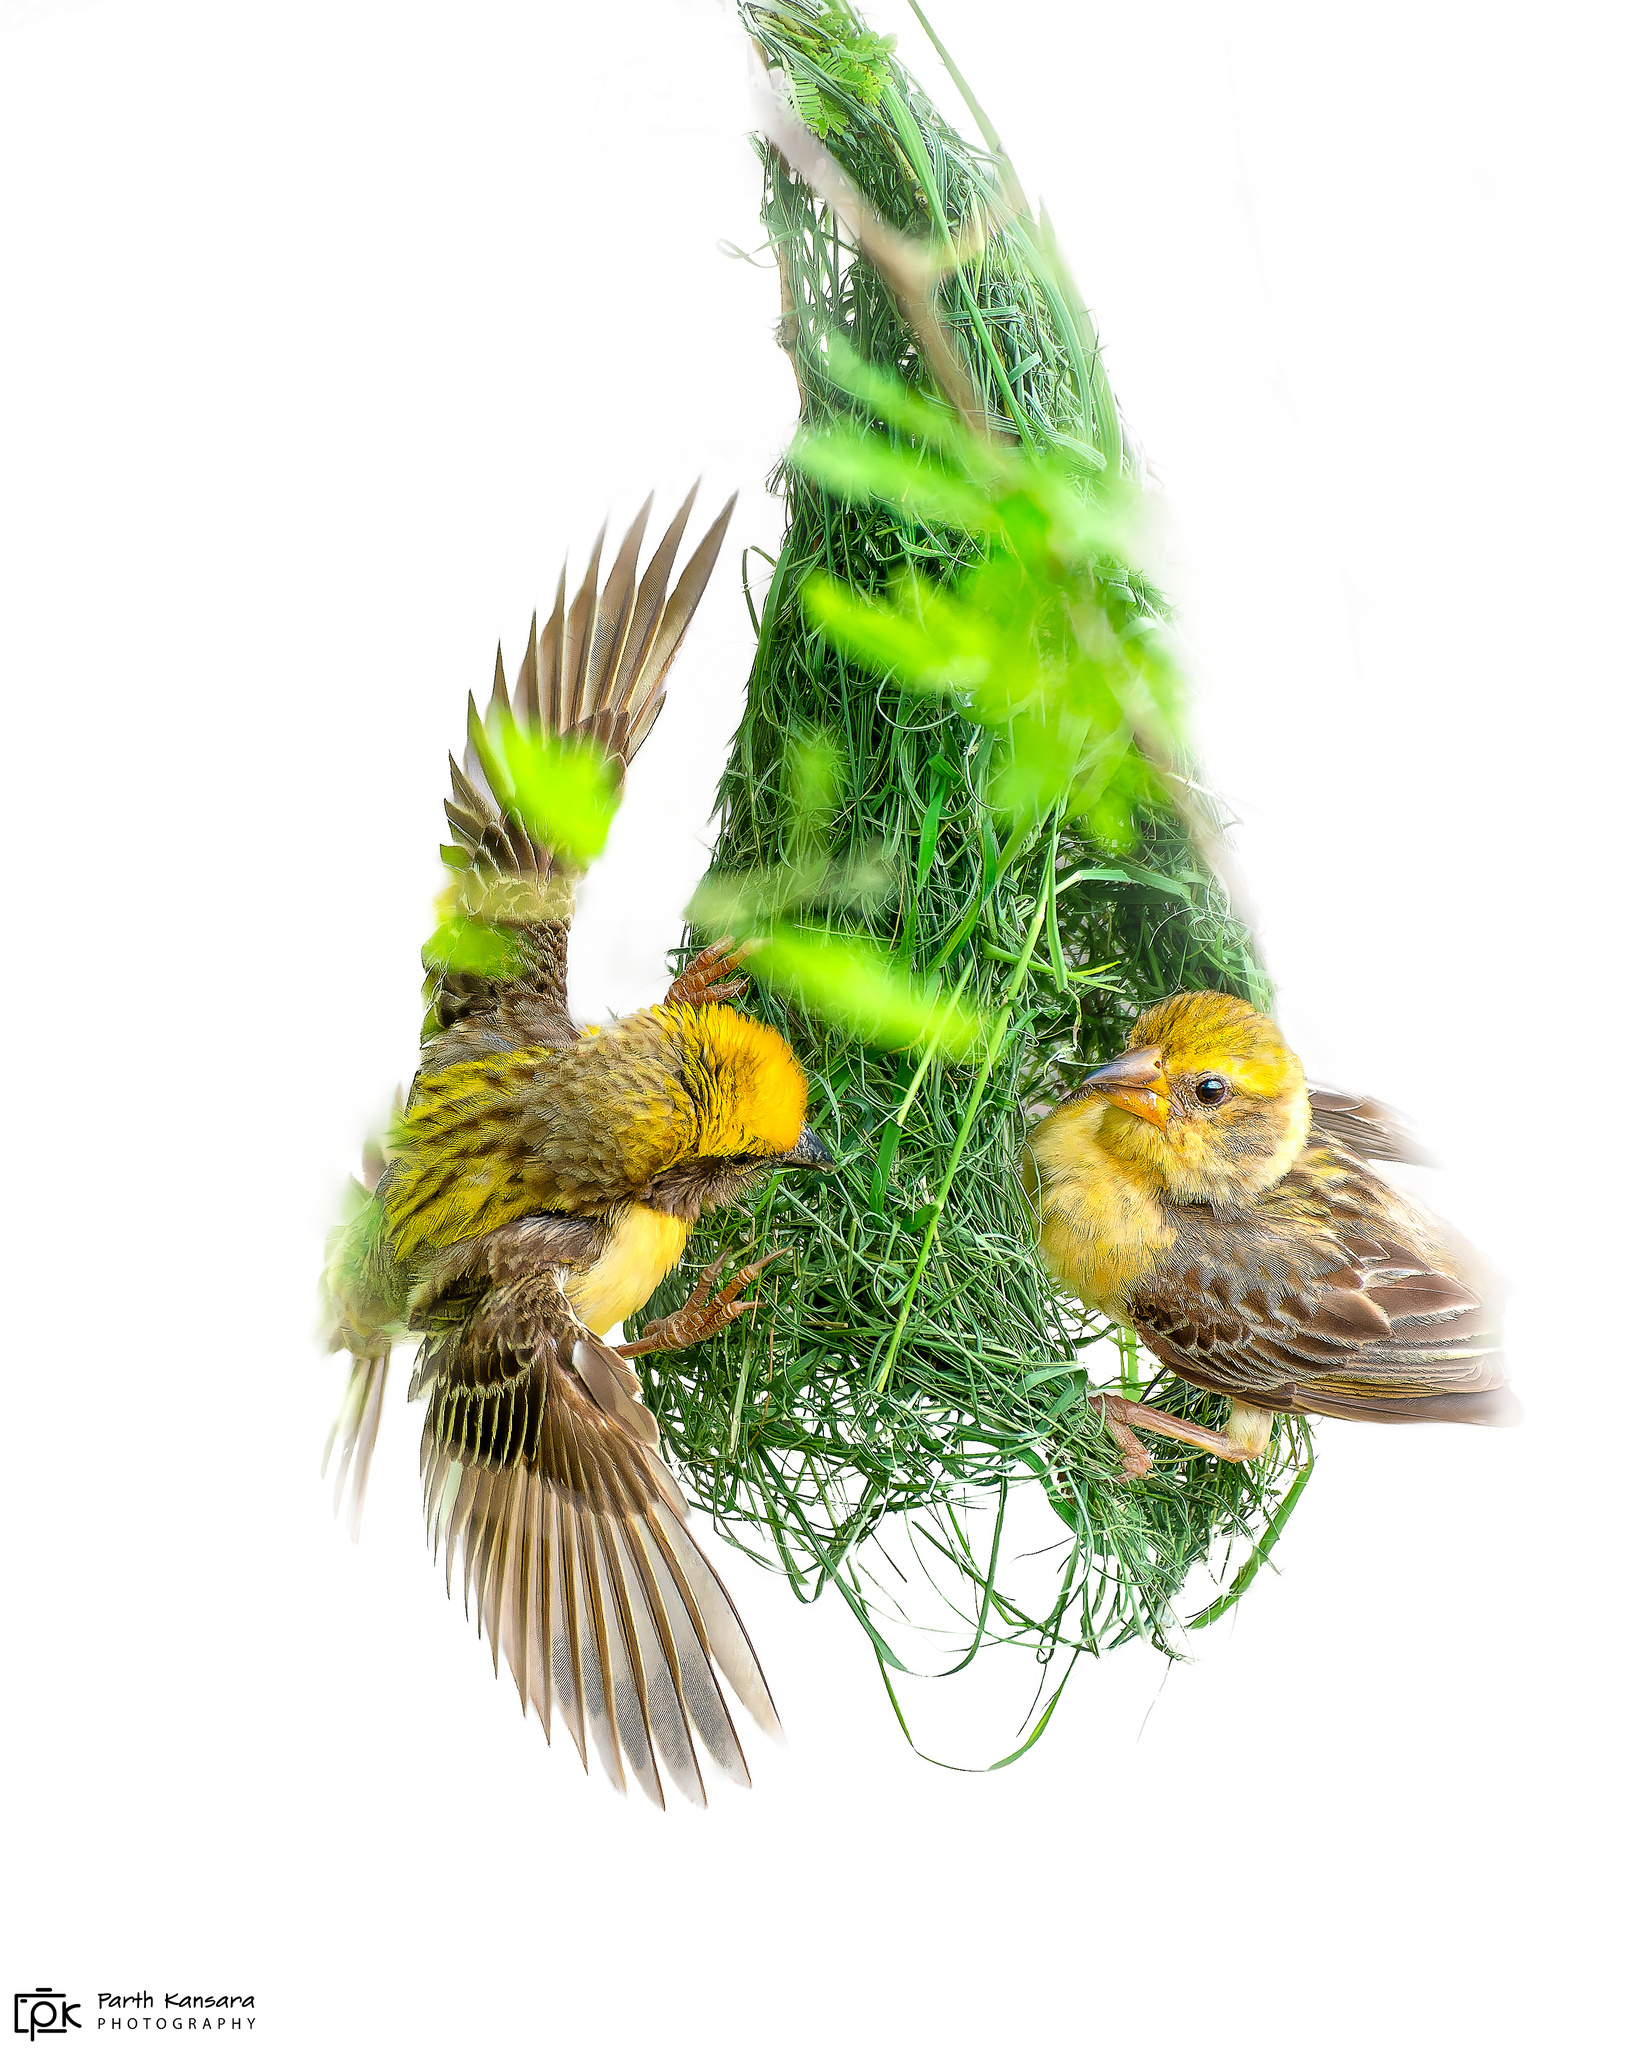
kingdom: Animalia
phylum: Chordata
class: Aves
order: Passeriformes
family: Ploceidae
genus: Ploceus
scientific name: Ploceus philippinus
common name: Baya weaver
